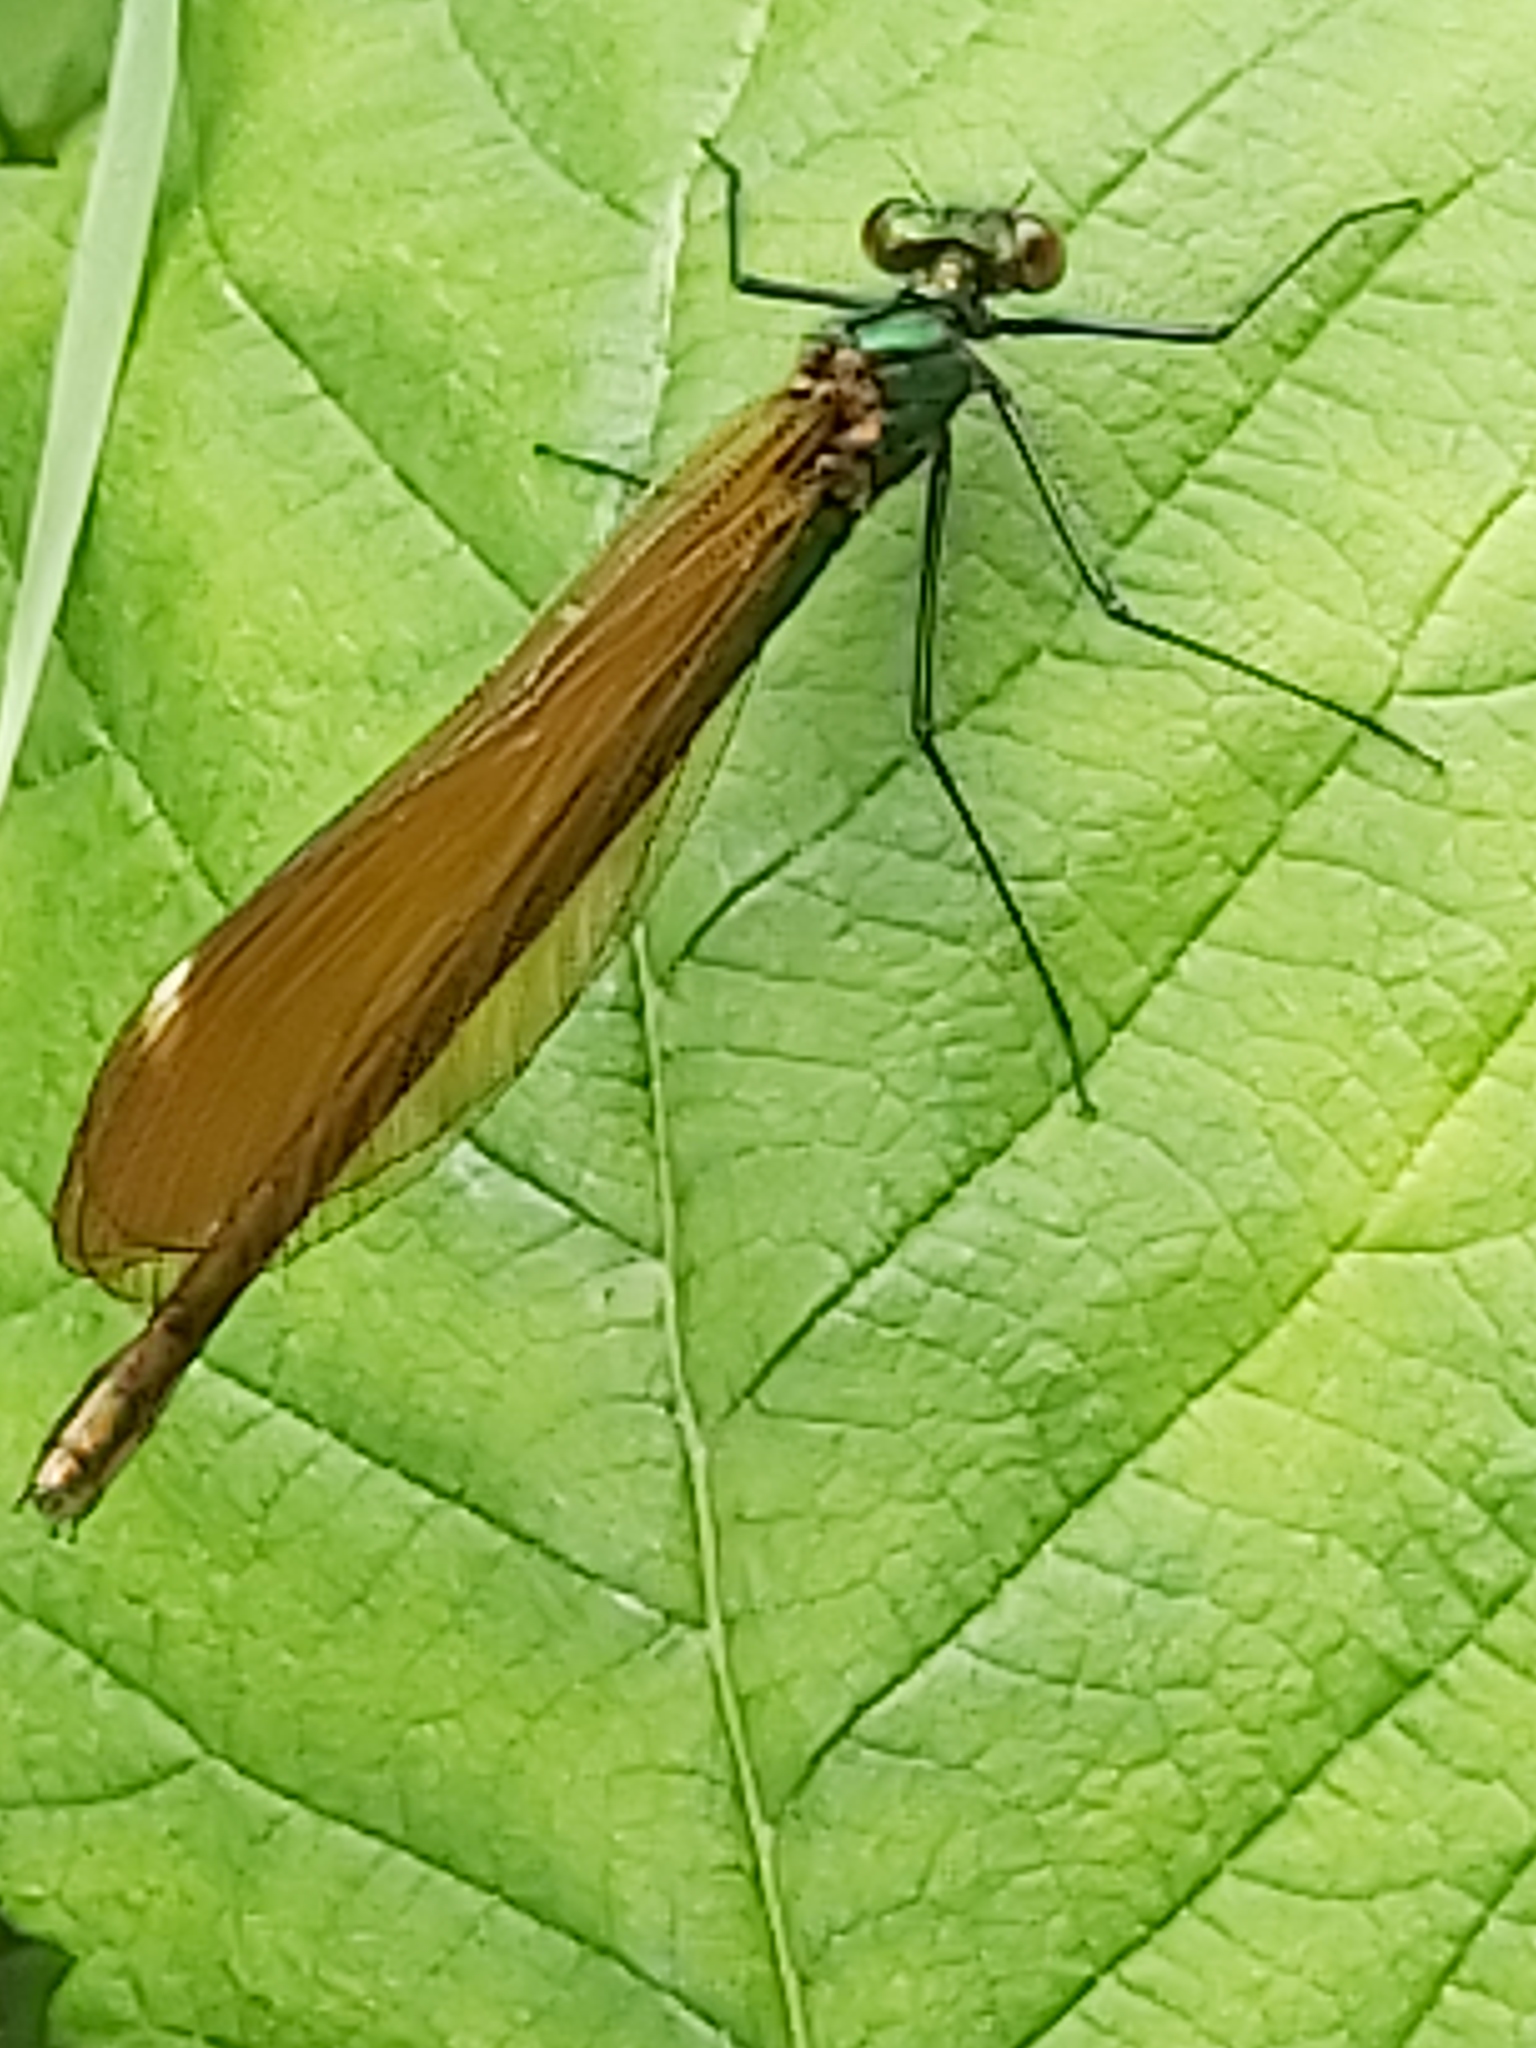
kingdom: Animalia
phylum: Arthropoda
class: Insecta
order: Odonata
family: Calopterygidae
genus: Calopteryx
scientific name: Calopteryx virgo
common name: Beautiful demoiselle
